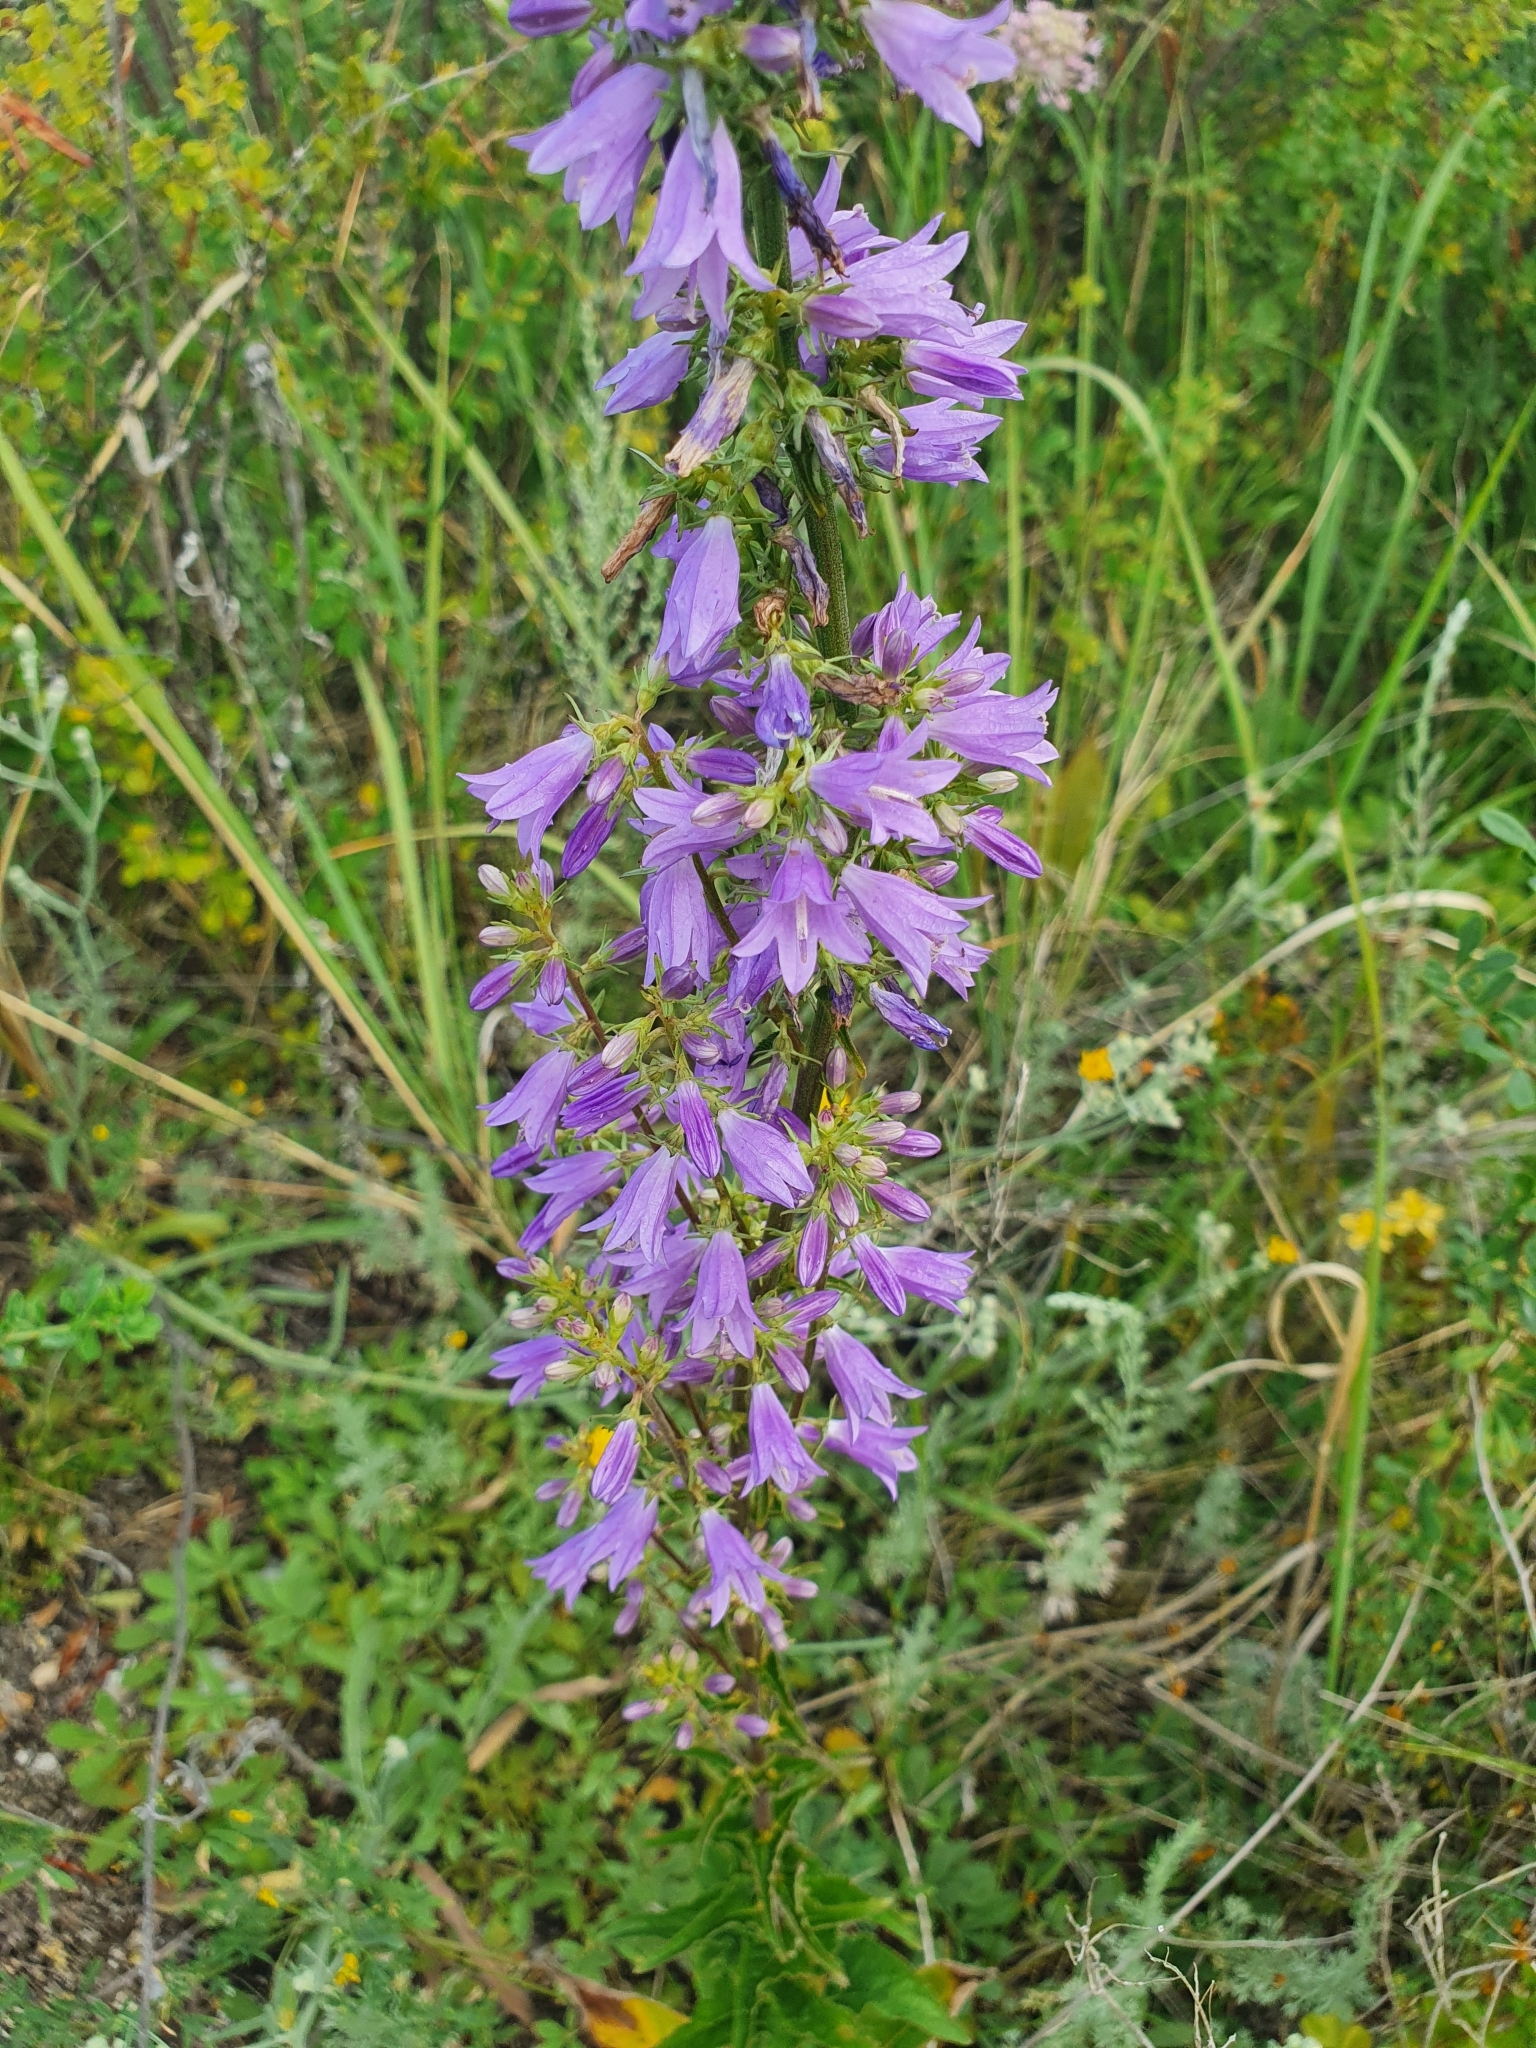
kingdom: Plantae
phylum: Tracheophyta
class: Magnoliopsida
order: Asterales
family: Campanulaceae
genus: Campanula
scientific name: Campanula bononiensis
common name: Pale bellflower
